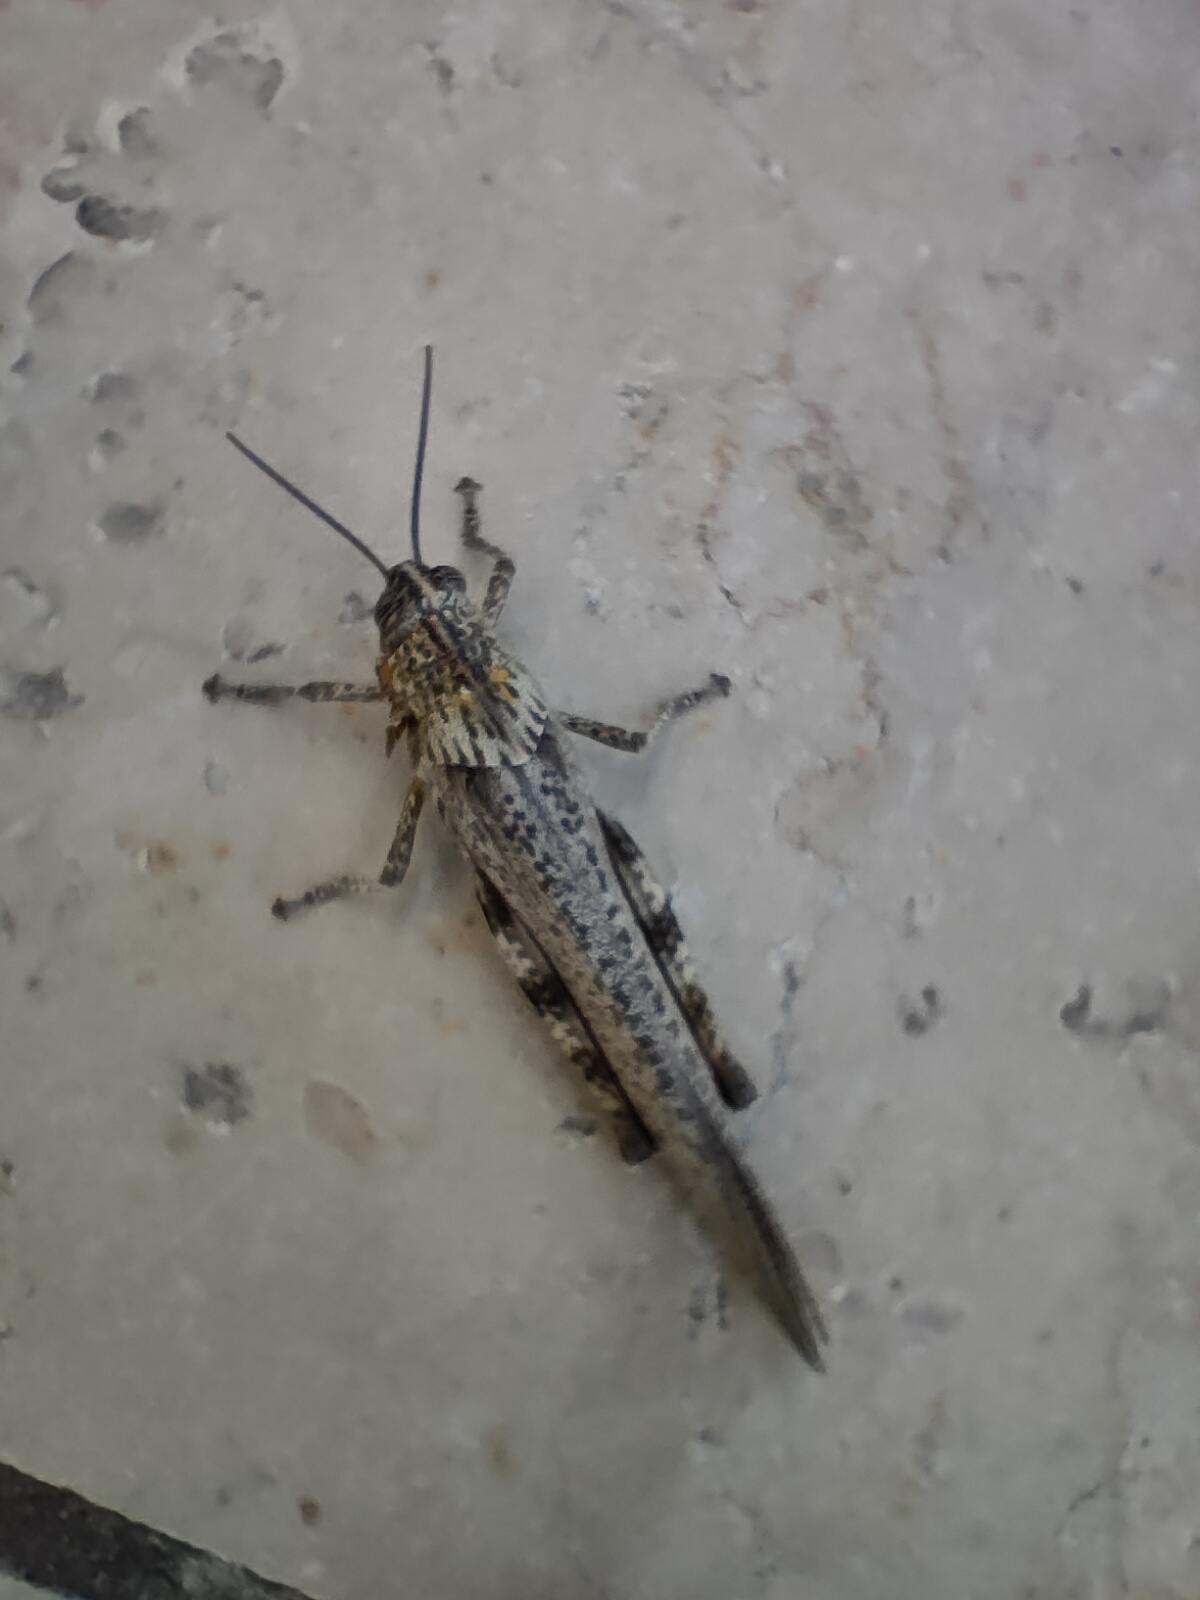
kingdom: Animalia
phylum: Arthropoda
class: Insecta
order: Orthoptera
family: Acrididae
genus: Anacridium
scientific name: Anacridium aegyptium
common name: Egyptian grasshopper
